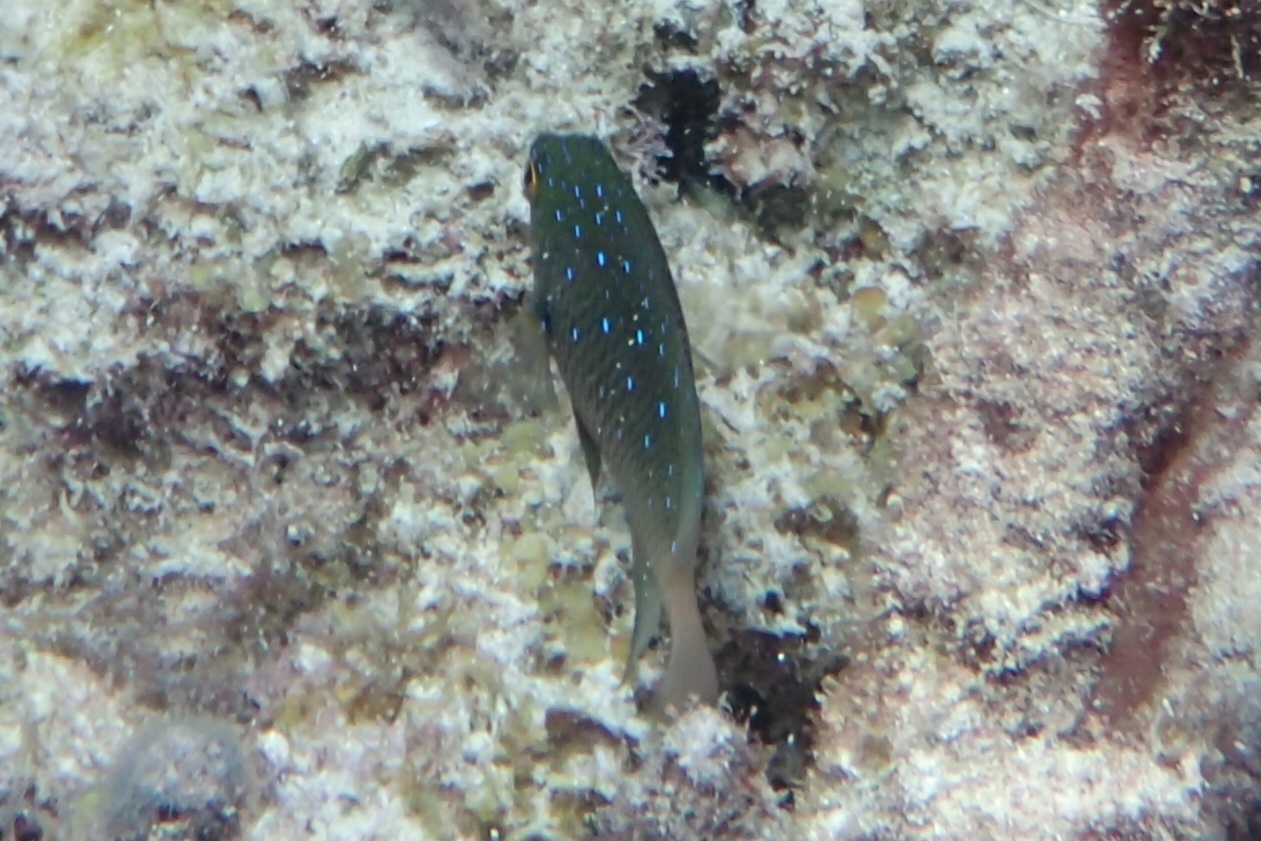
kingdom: Animalia
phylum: Chordata
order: Perciformes
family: Pomacentridae
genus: Plectroglyphidodon
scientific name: Plectroglyphidodon lacrymatus
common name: Jewel damsel
